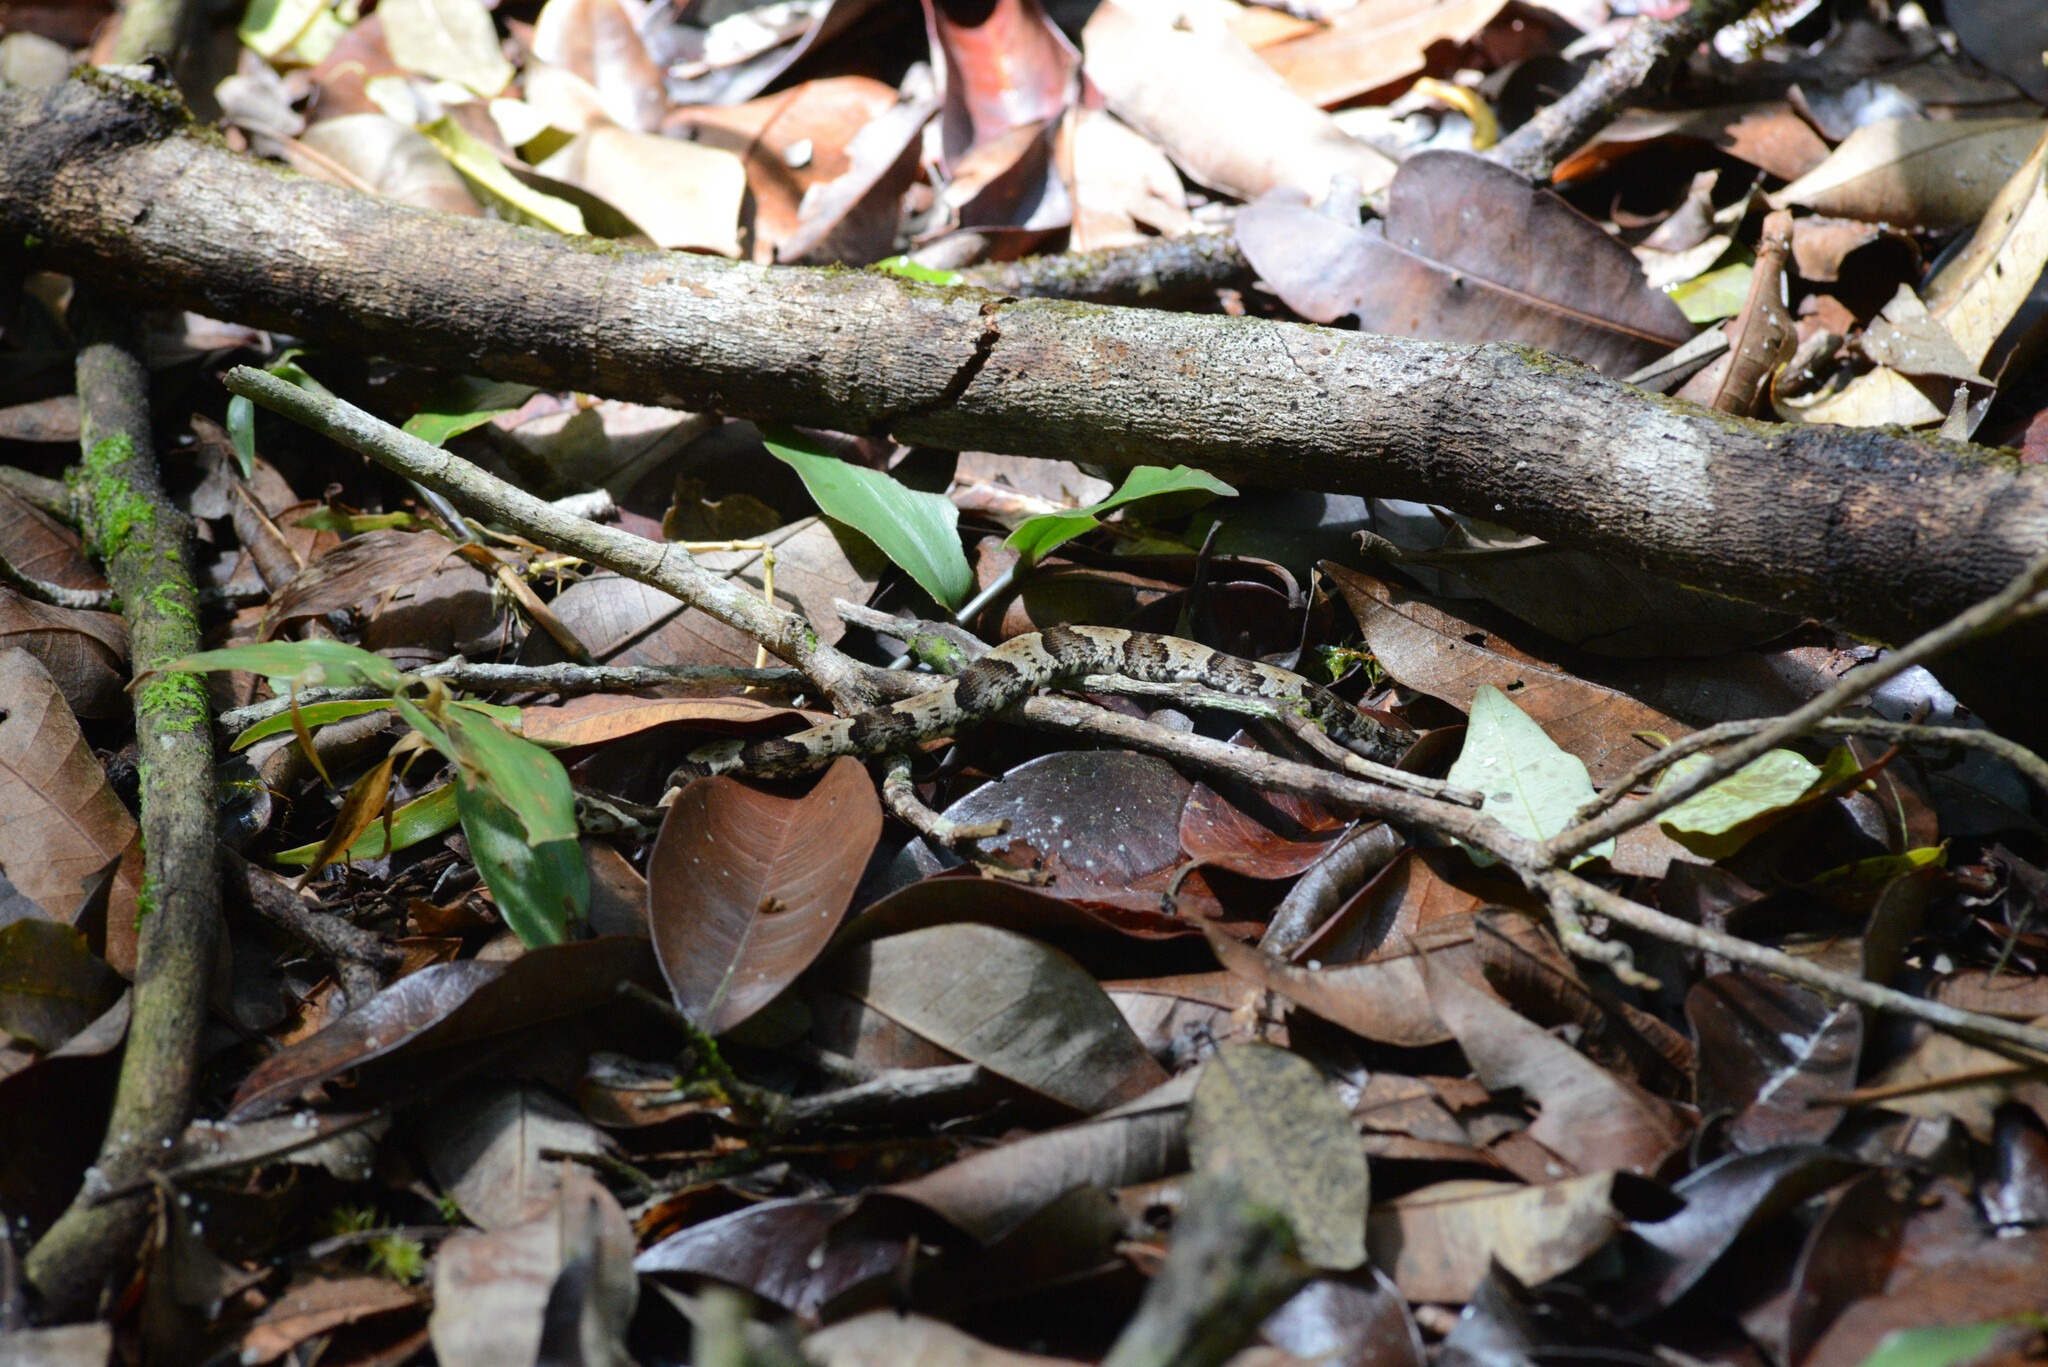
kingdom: Animalia
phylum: Chordata
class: Squamata
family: Colubridae
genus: Xenodon
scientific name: Xenodon rabdocephalus
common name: False fer-de-lance
